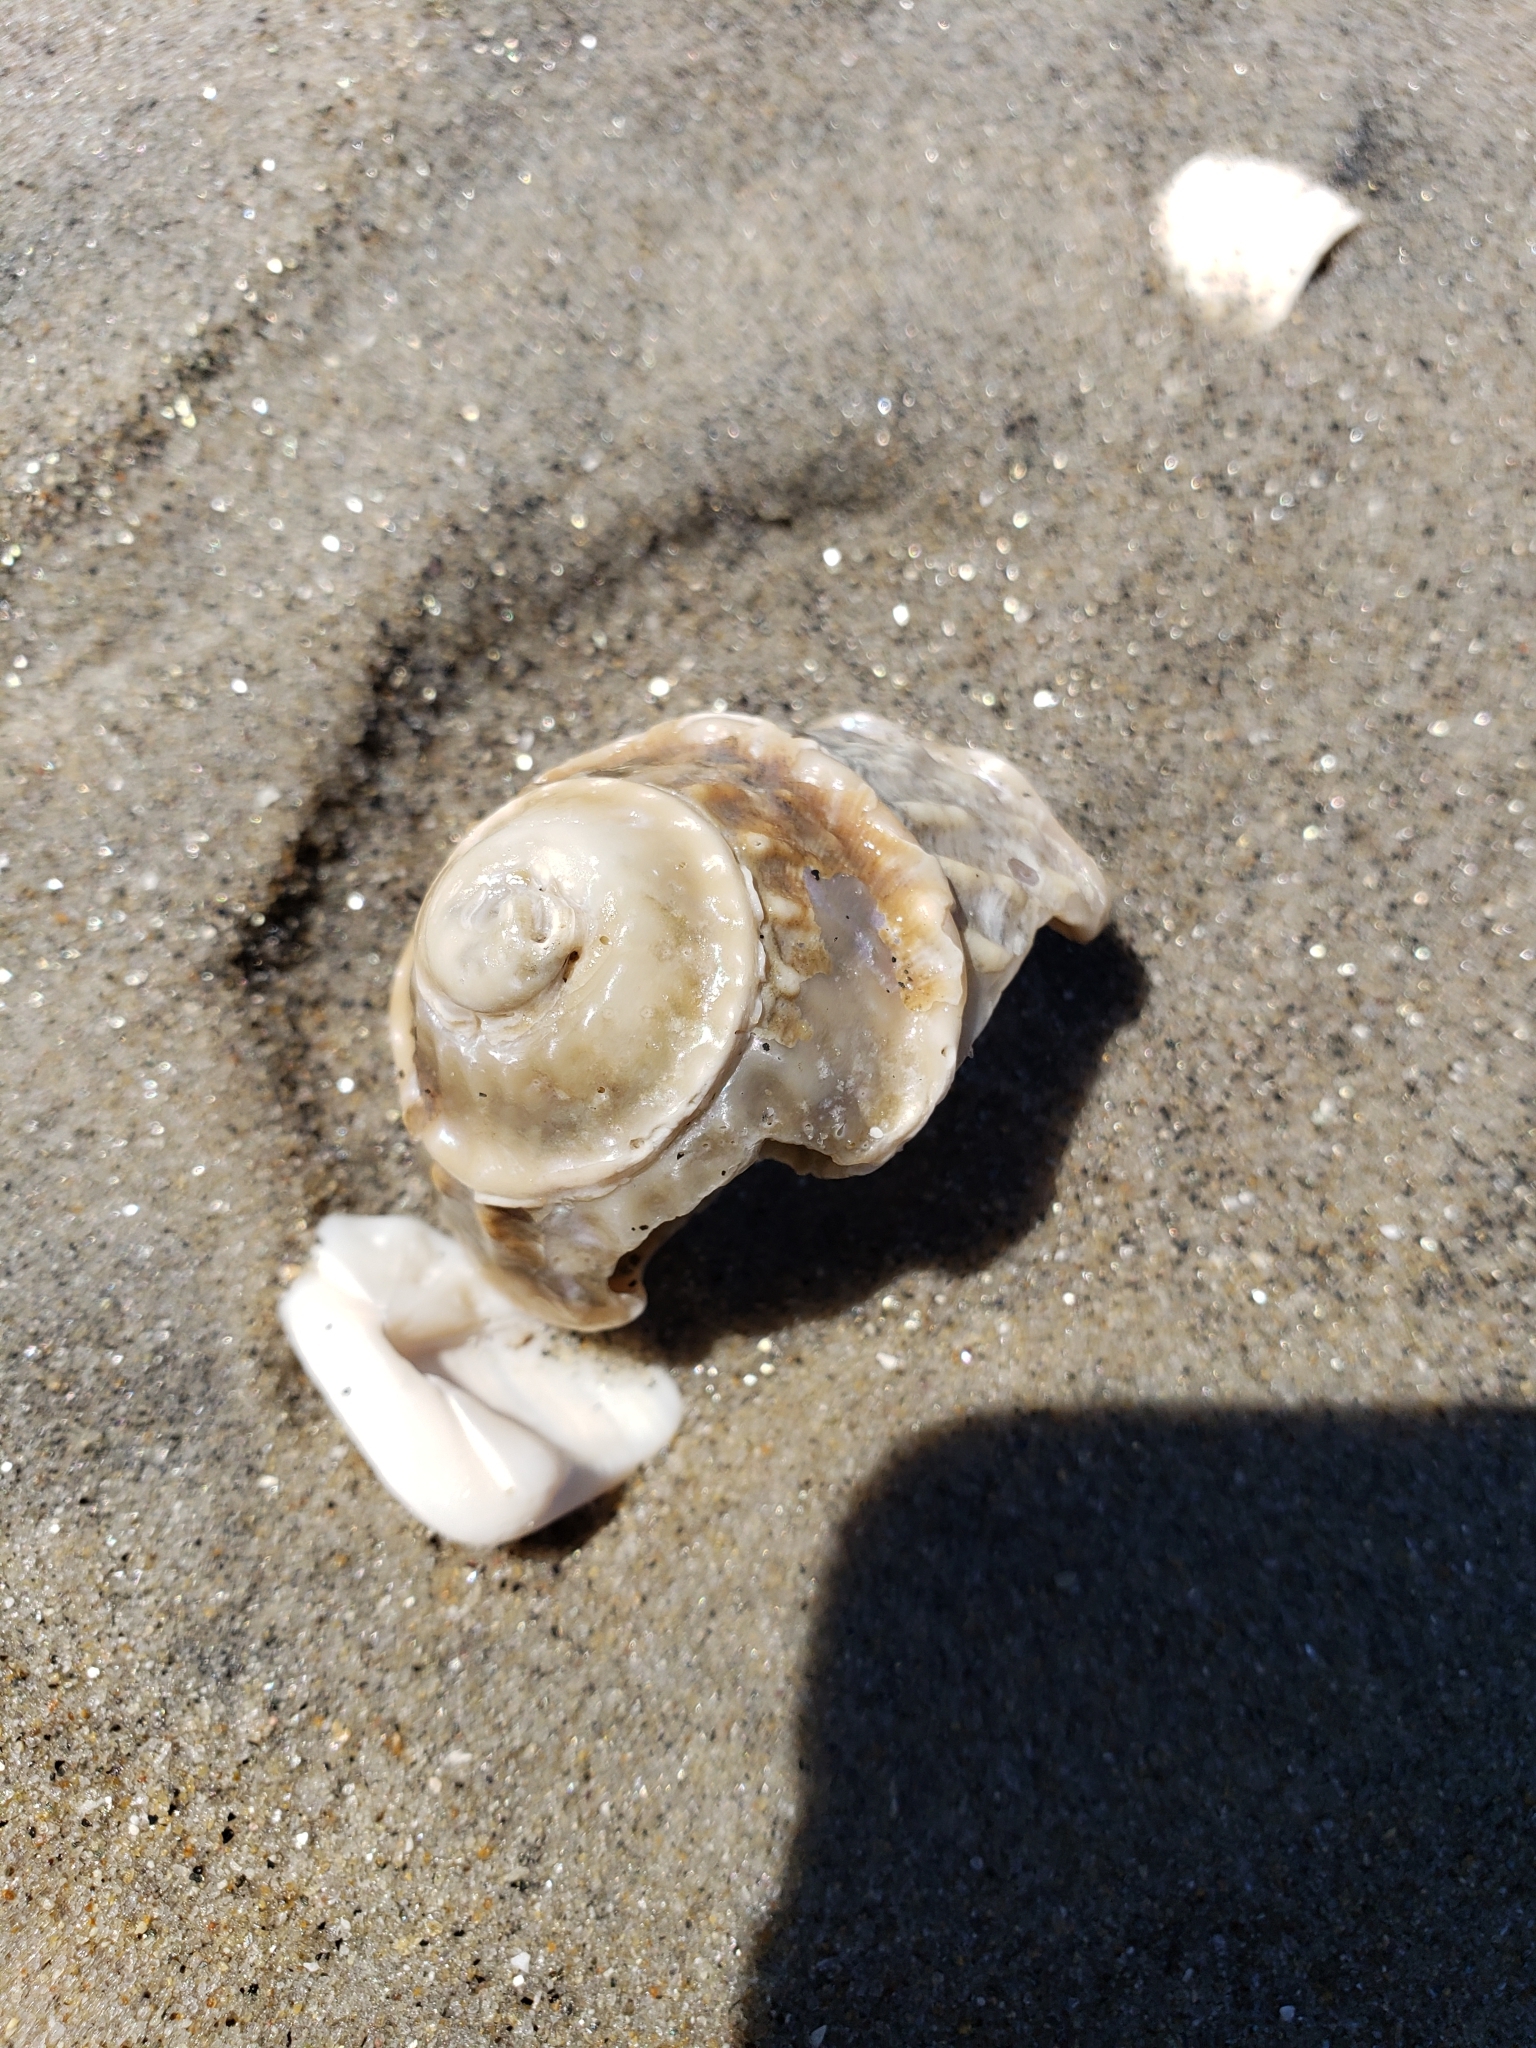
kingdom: Animalia
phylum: Mollusca
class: Gastropoda
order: Trochida
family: Turbinidae
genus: Megastraea
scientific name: Megastraea undosa
